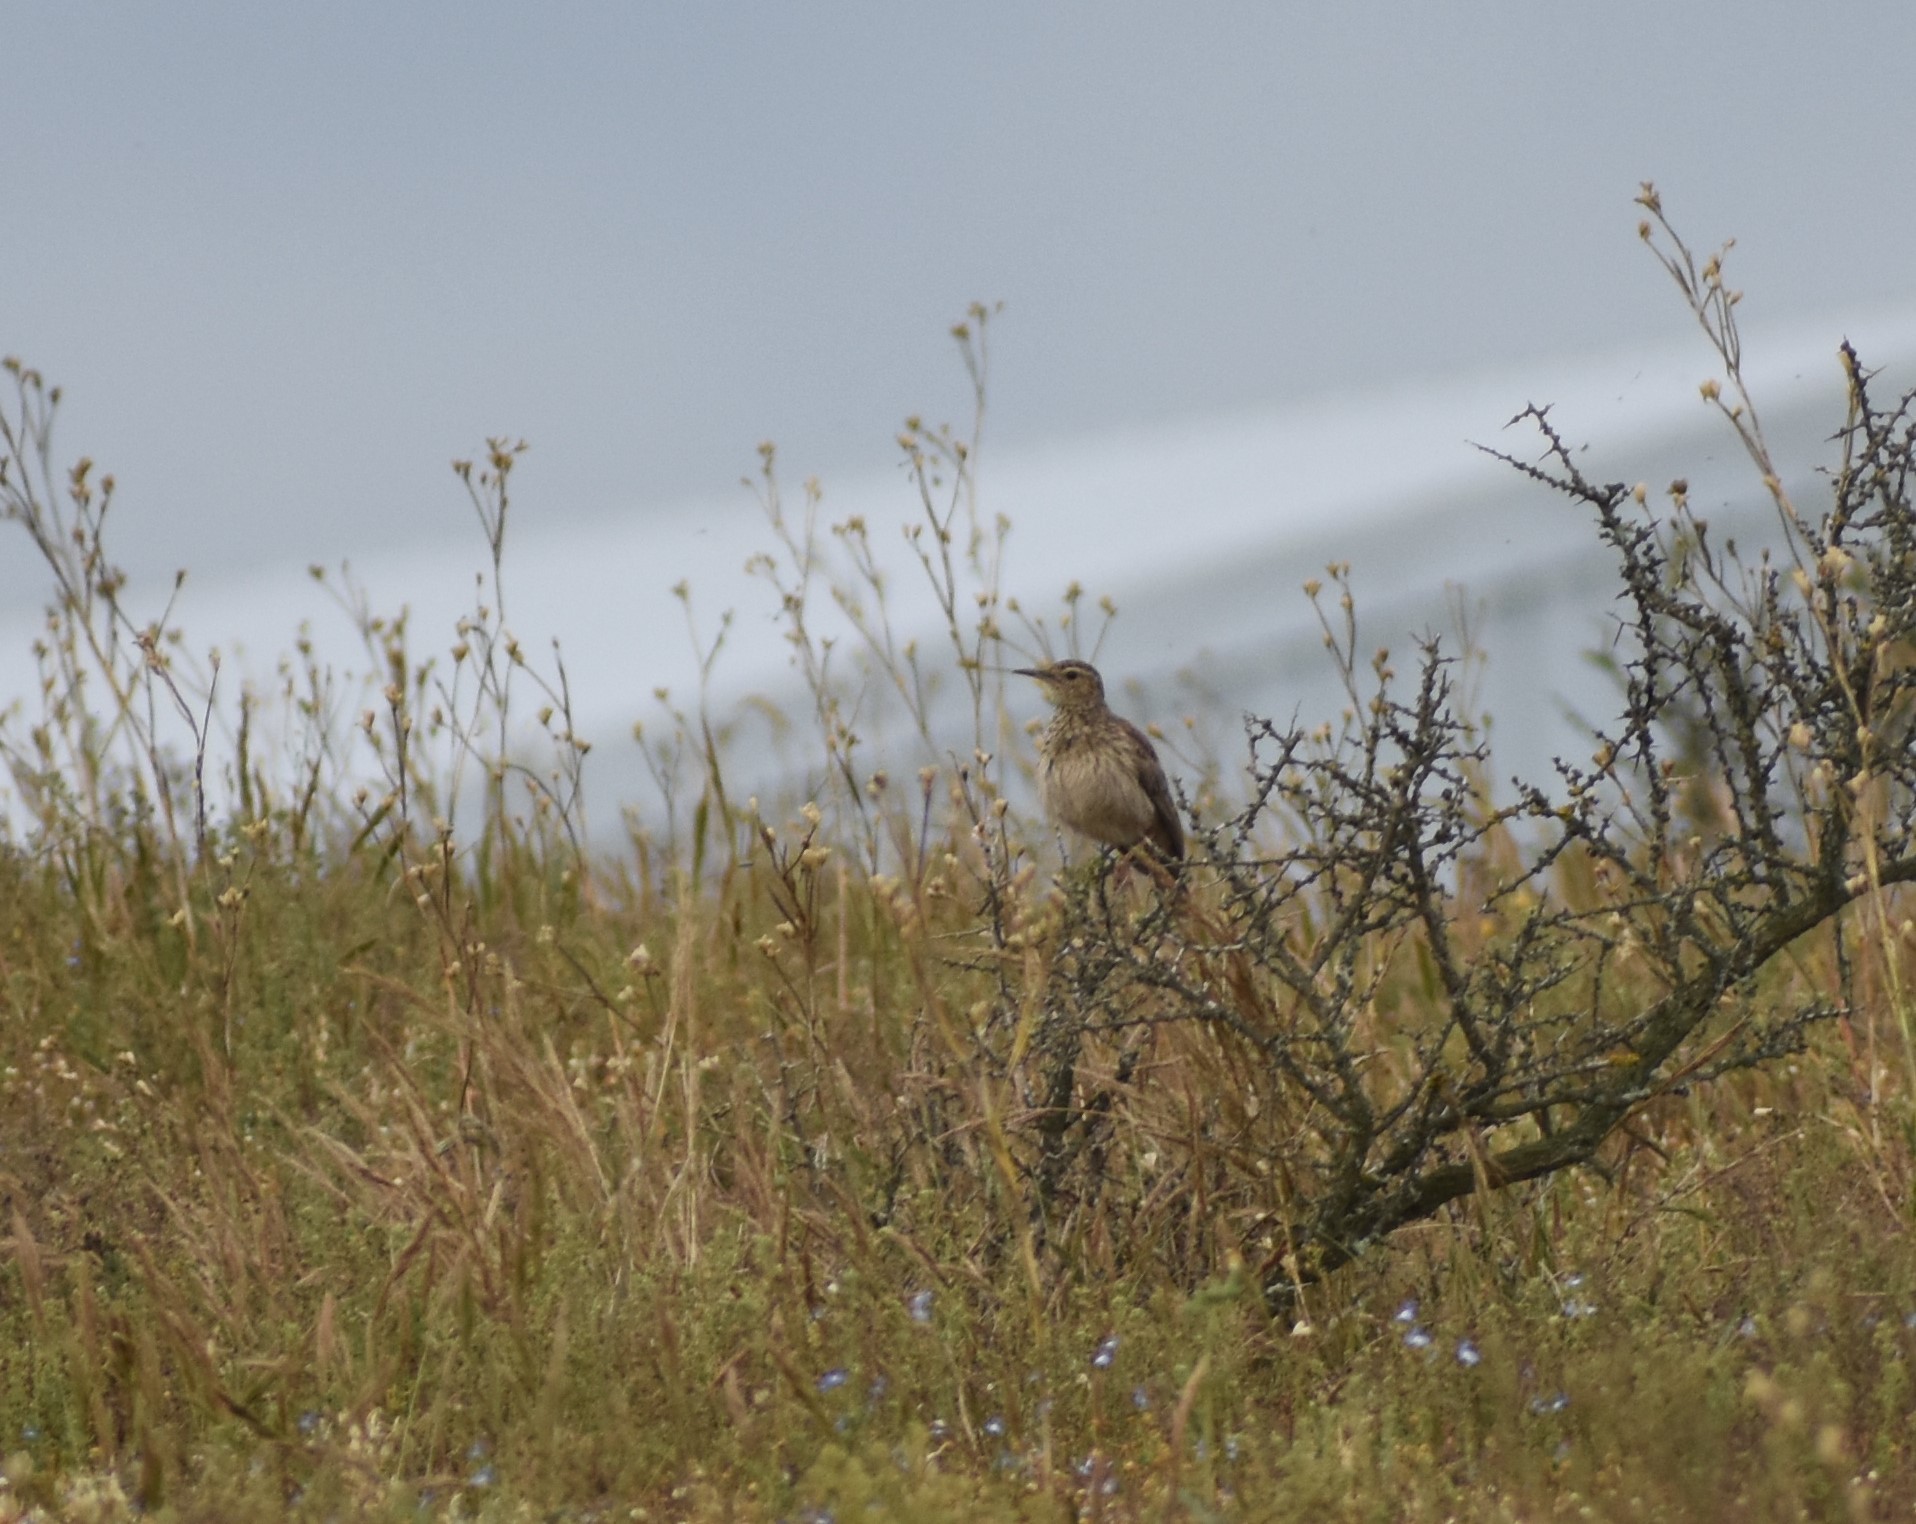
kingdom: Animalia
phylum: Chordata
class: Aves
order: Passeriformes
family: Alaudidae
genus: Certhilauda
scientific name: Certhilauda curvirostris
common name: Cape long-billed lark
